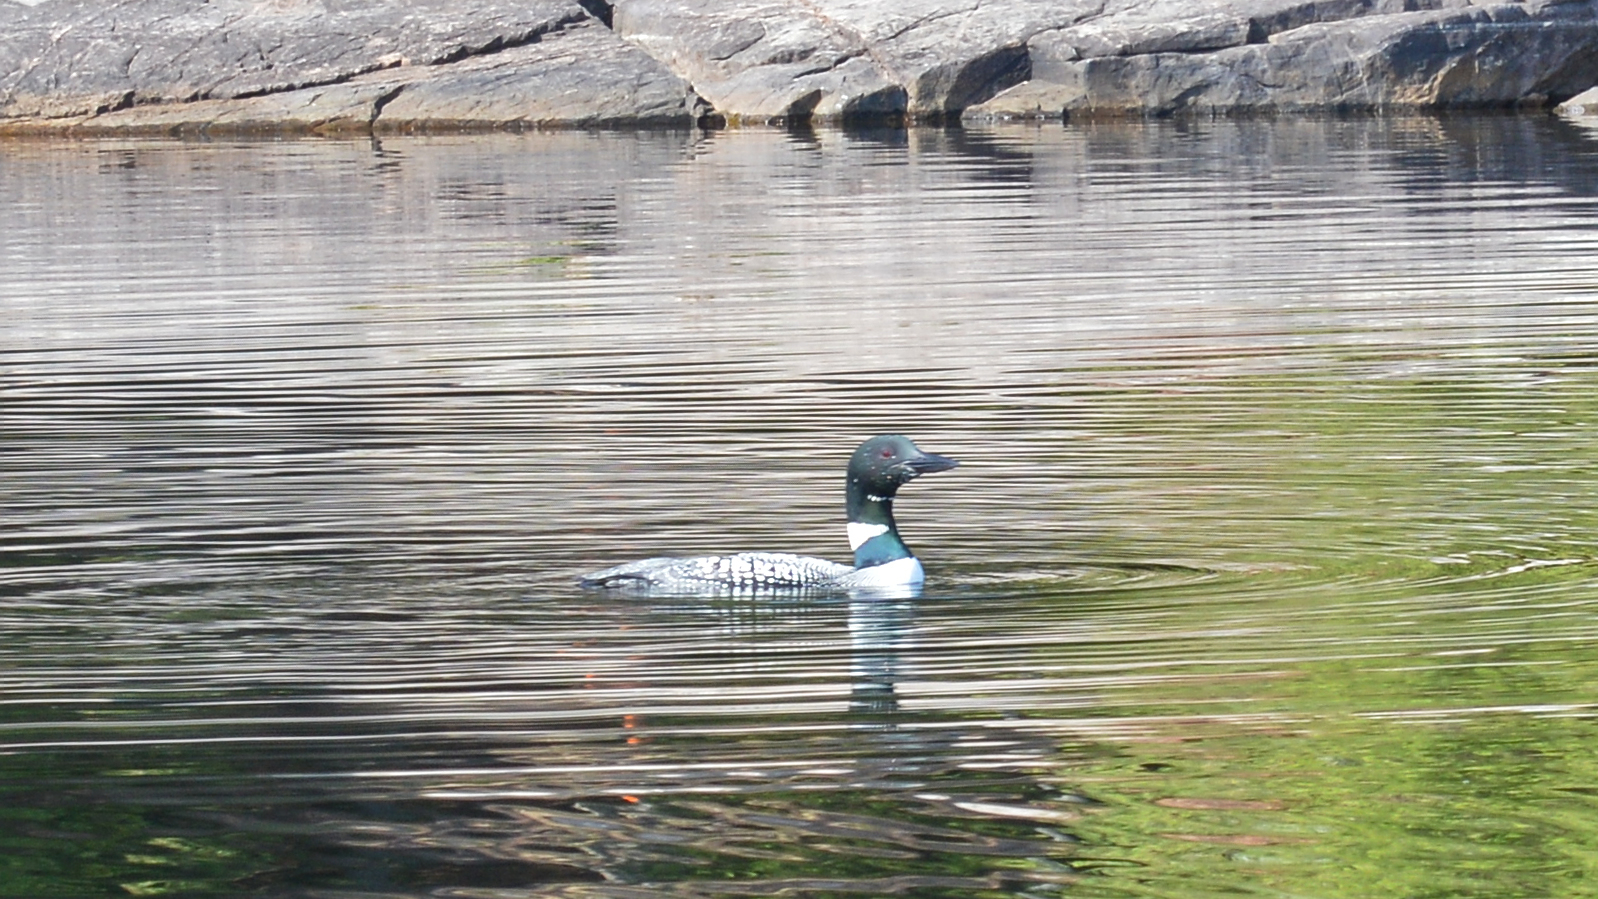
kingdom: Animalia
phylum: Chordata
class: Aves
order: Gaviiformes
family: Gaviidae
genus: Gavia
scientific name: Gavia immer
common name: Common loon
